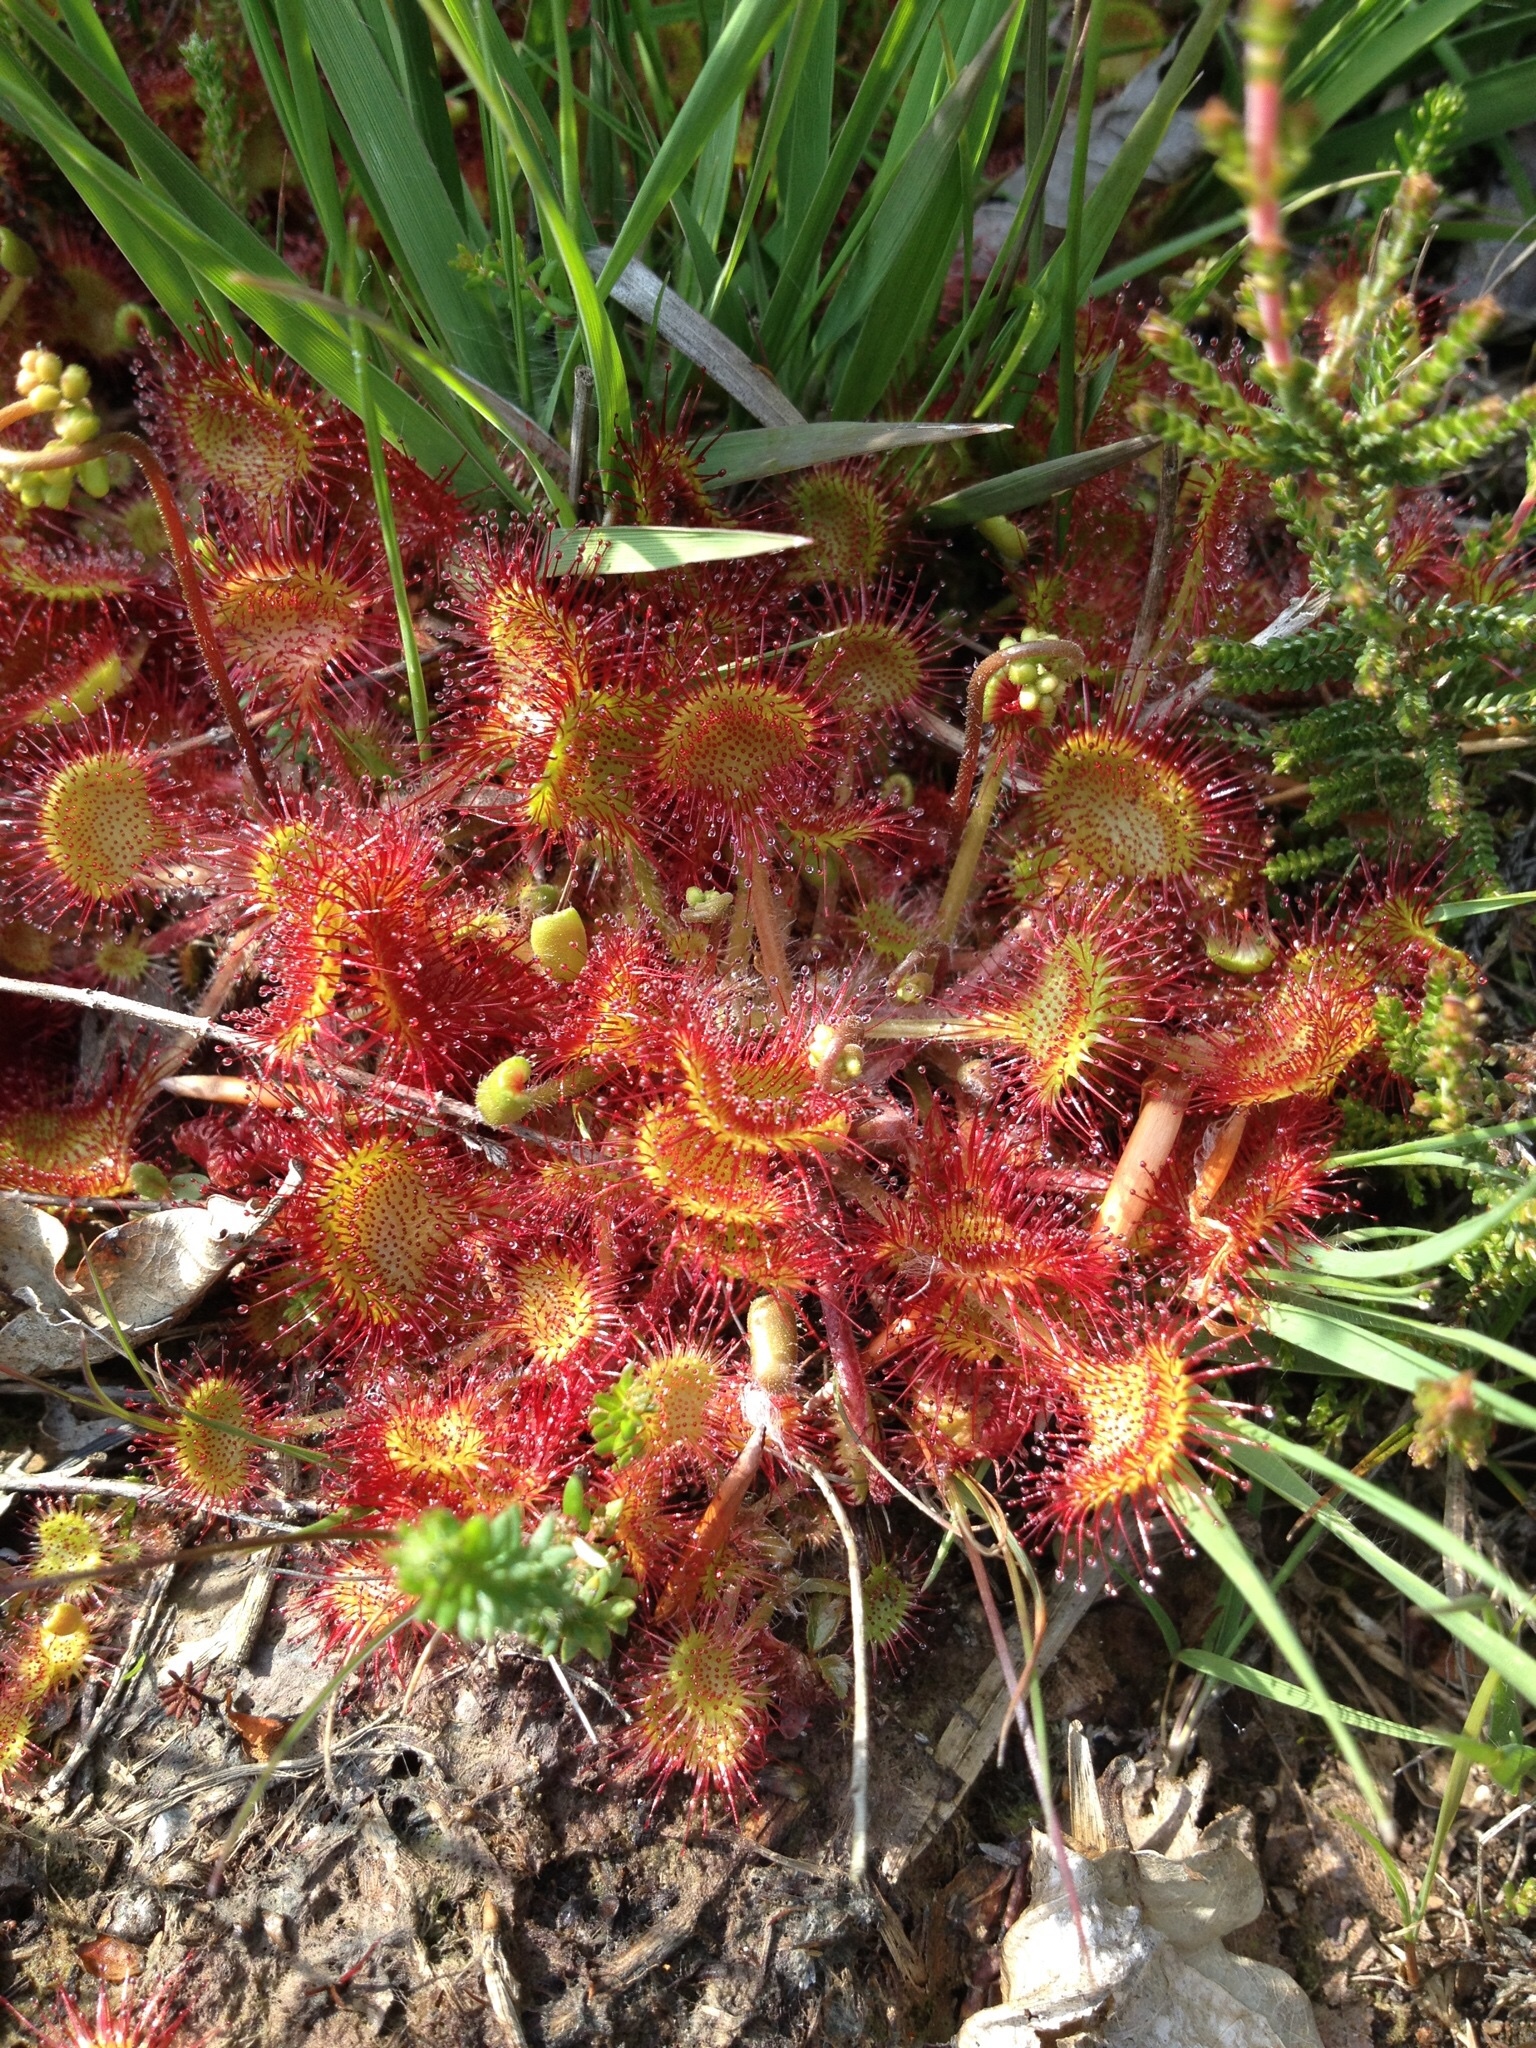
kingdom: Plantae
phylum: Tracheophyta
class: Magnoliopsida
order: Caryophyllales
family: Droseraceae
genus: Drosera
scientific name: Drosera rotundifolia
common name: Round-leaved sundew
